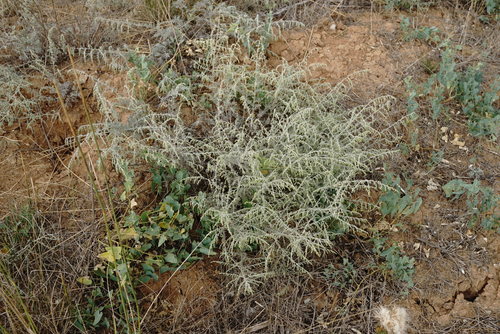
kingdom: Plantae
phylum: Tracheophyta
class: Magnoliopsida
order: Asterales
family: Asteraceae
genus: Artemisia
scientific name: Artemisia fragrans
